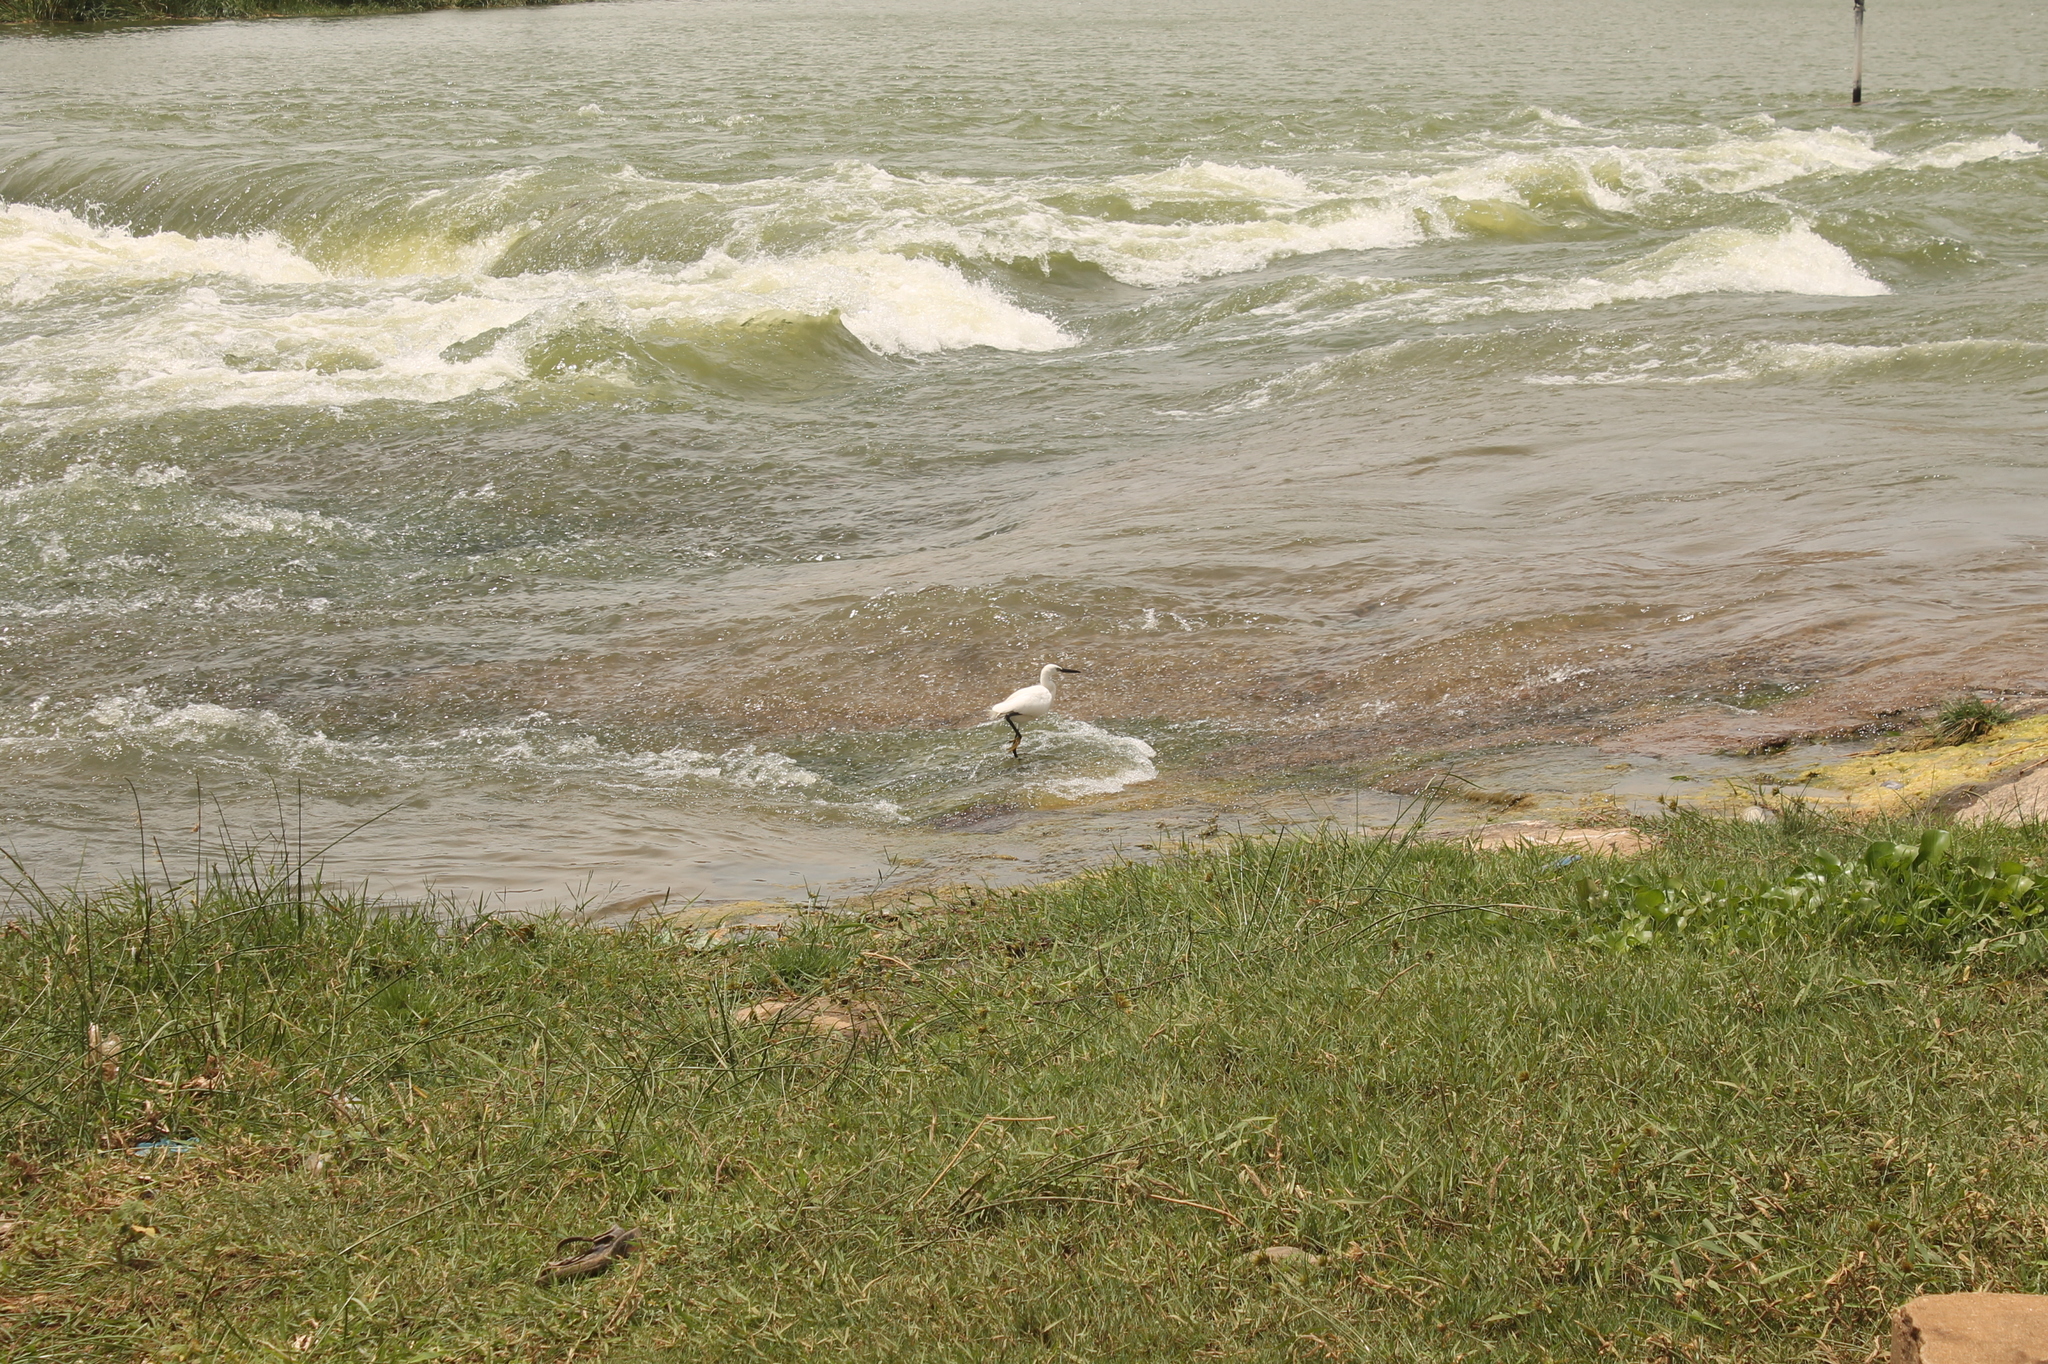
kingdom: Animalia
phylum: Chordata
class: Aves
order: Pelecaniformes
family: Ardeidae
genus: Egretta
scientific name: Egretta garzetta
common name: Little egret
